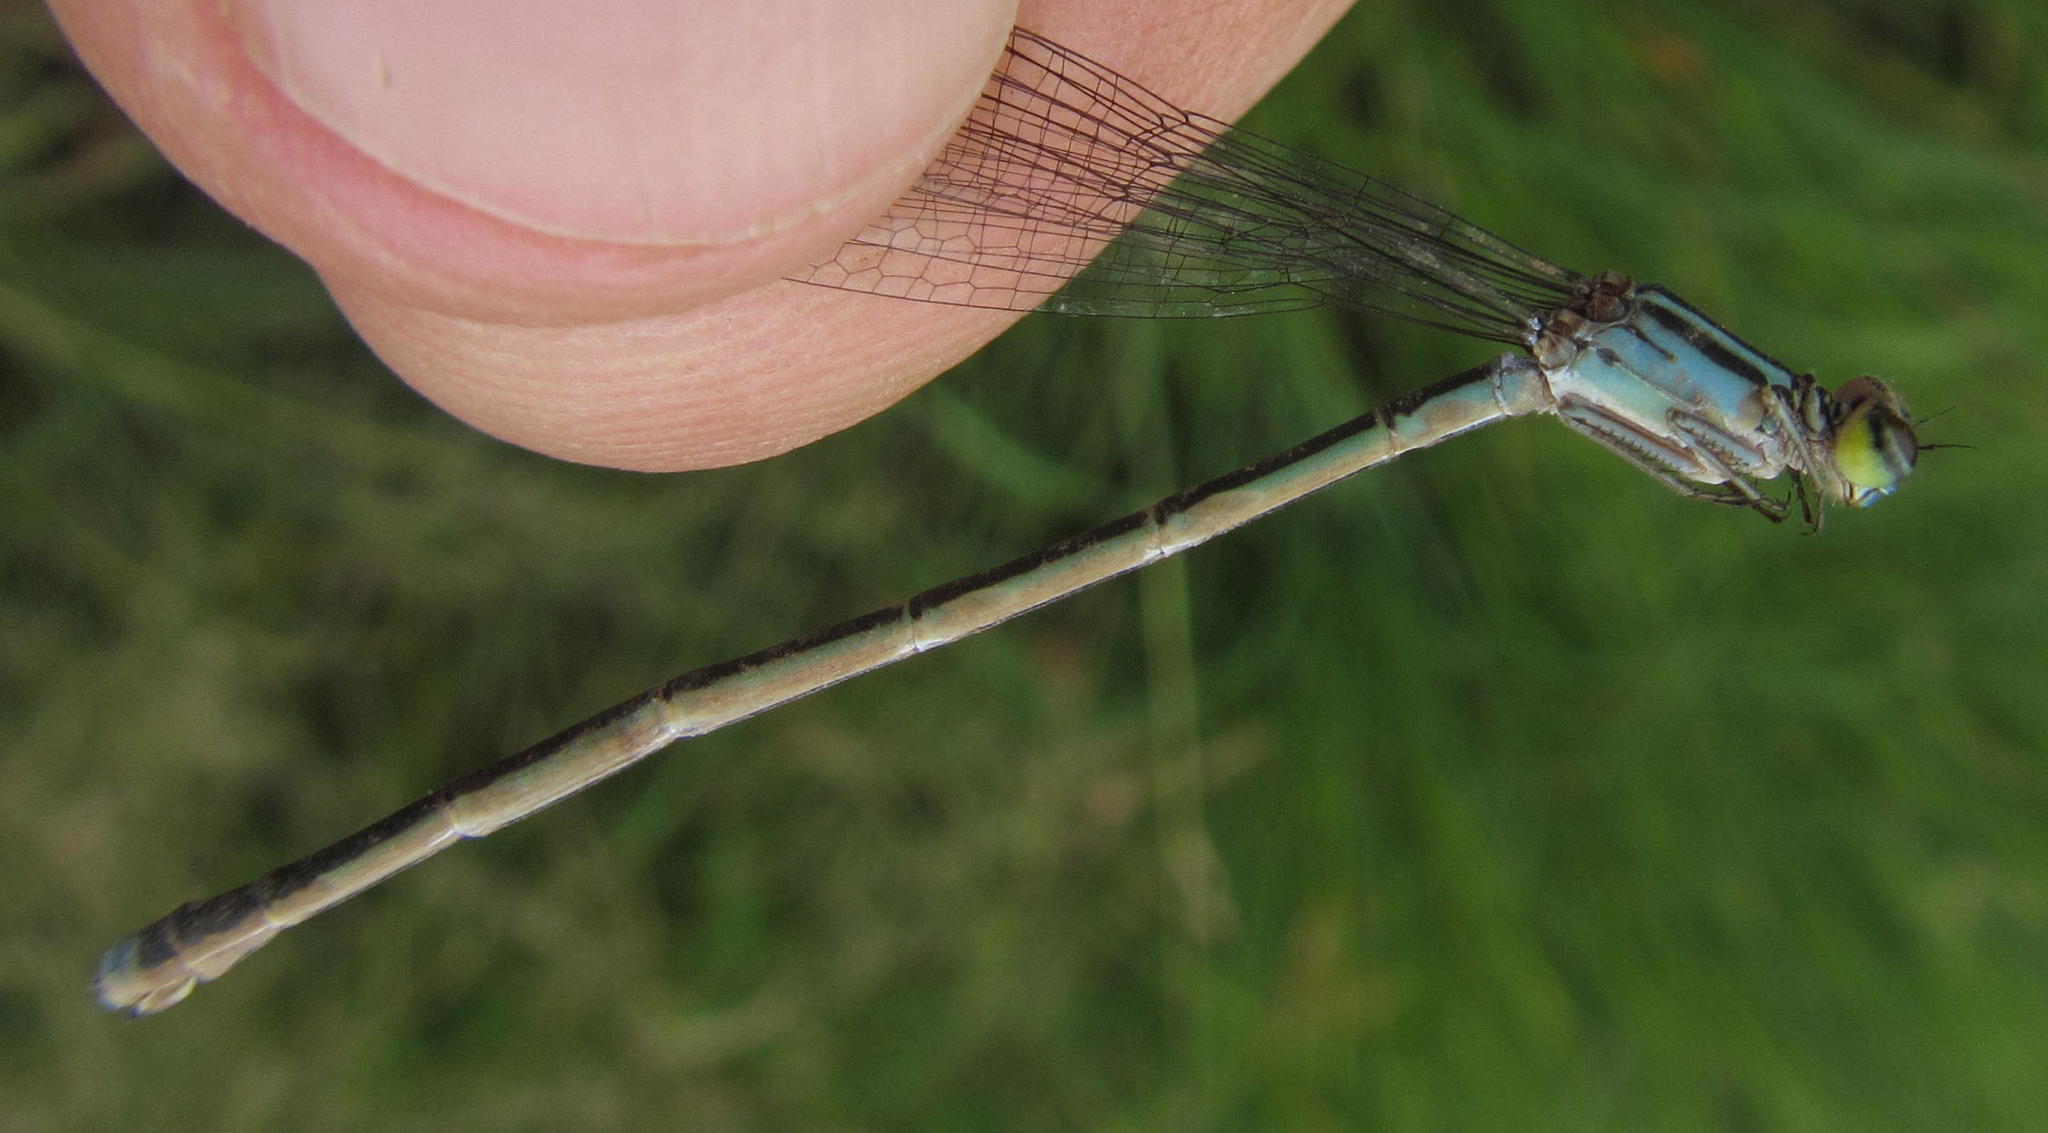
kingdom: Animalia
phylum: Arthropoda
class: Insecta
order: Odonata
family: Coenagrionidae
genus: Pseudagrion
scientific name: Pseudagrion spernatum
